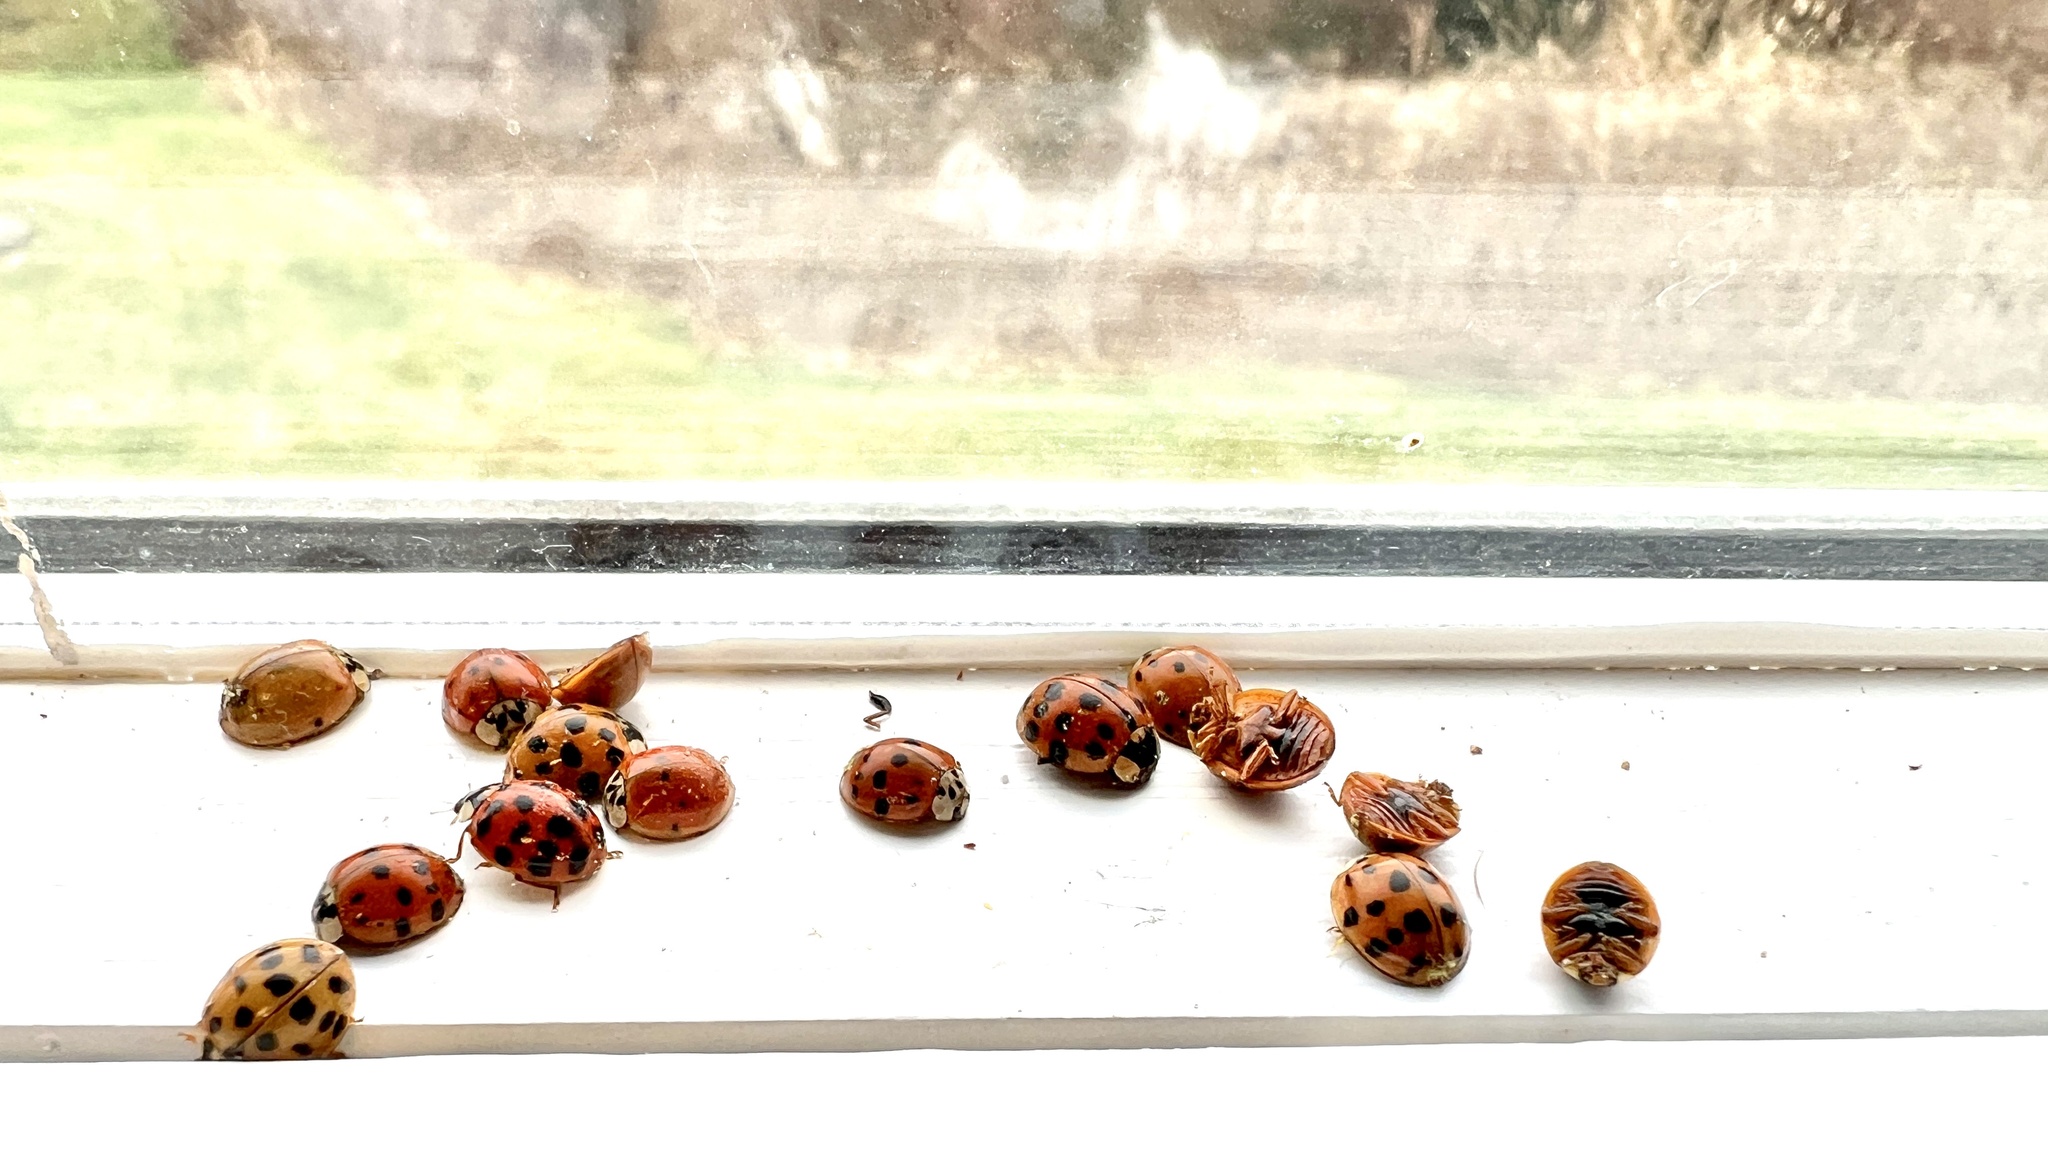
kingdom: Animalia
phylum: Arthropoda
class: Insecta
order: Coleoptera
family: Coccinellidae
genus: Harmonia
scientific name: Harmonia axyridis
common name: Harlequin ladybird
